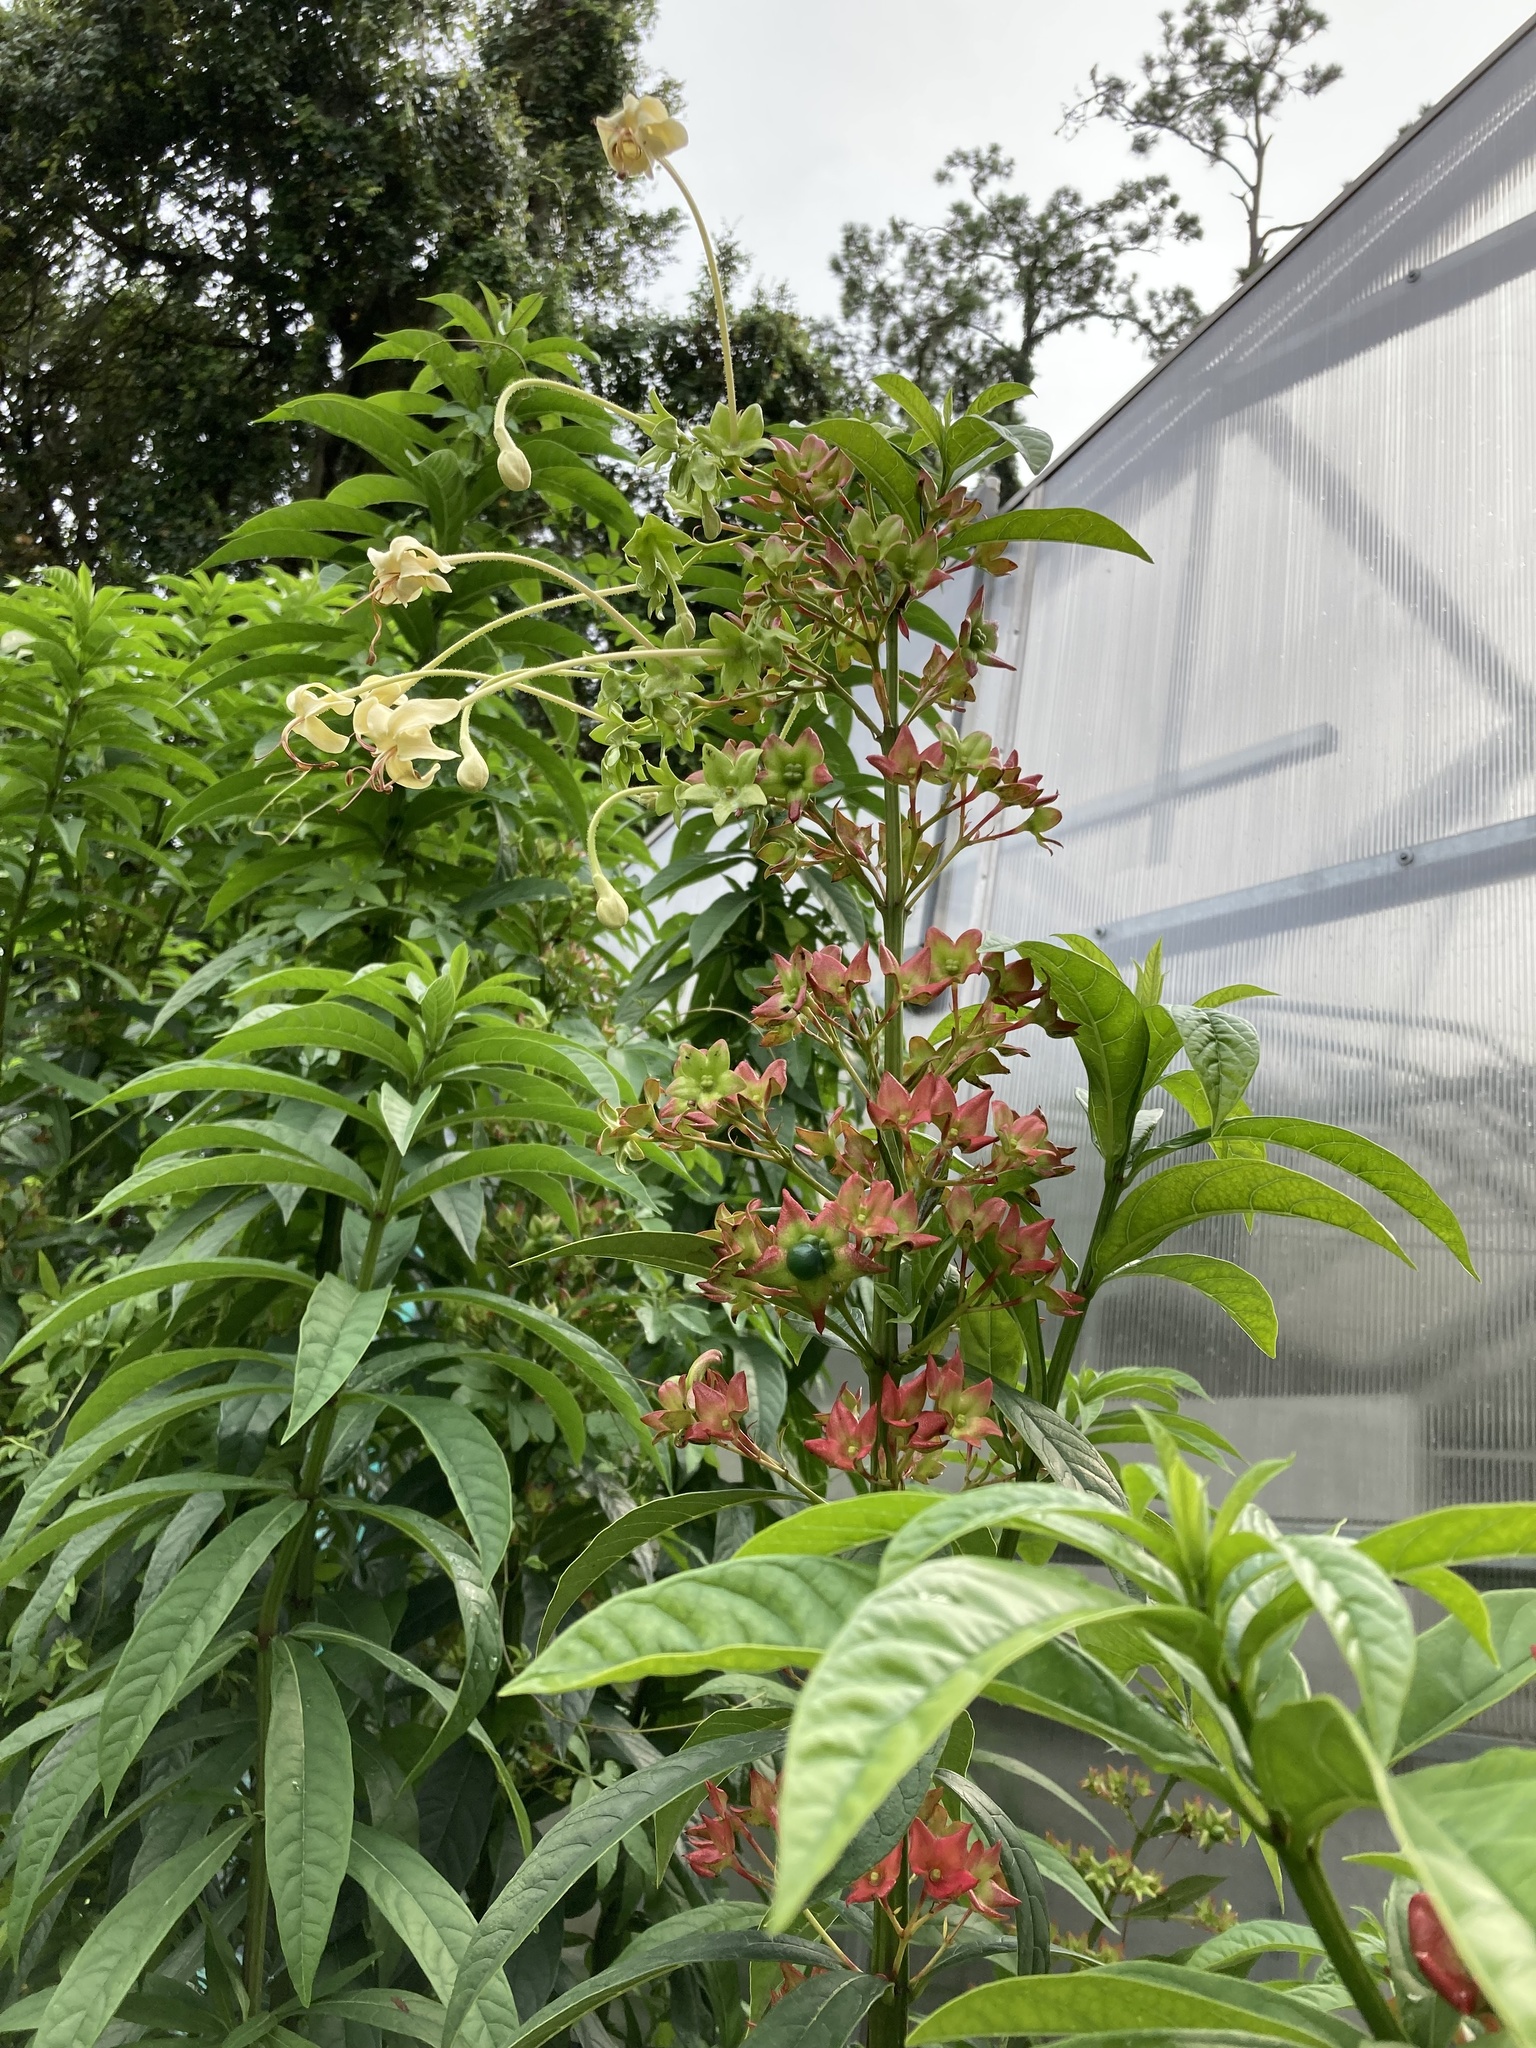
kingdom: Plantae
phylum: Tracheophyta
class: Magnoliopsida
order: Lamiales
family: Lamiaceae
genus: Clerodendrum
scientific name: Clerodendrum indicum
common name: Turk's turbin
